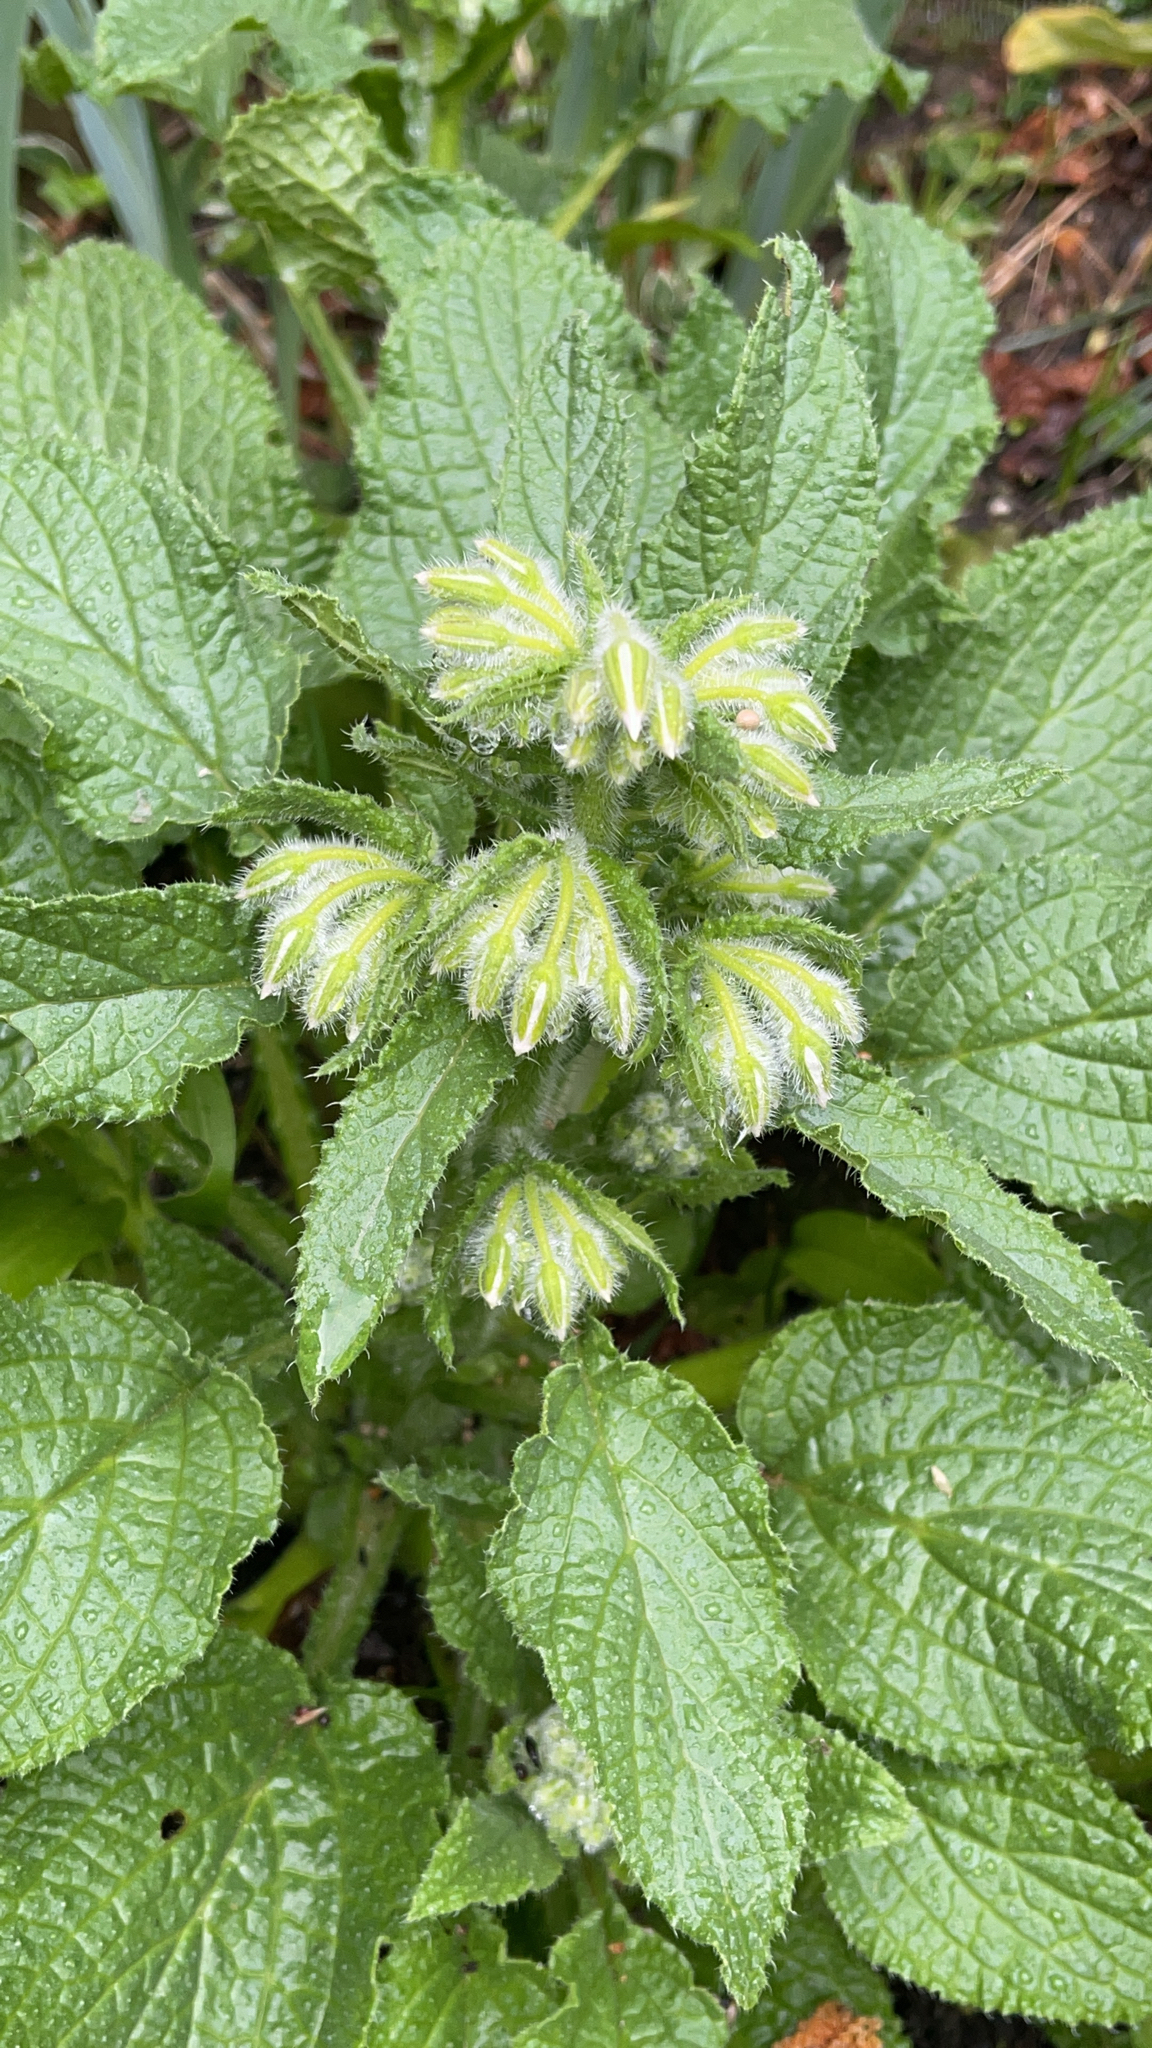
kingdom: Plantae
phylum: Tracheophyta
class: Magnoliopsida
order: Boraginales
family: Boraginaceae
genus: Borago
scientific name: Borago officinalis
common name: Borage
